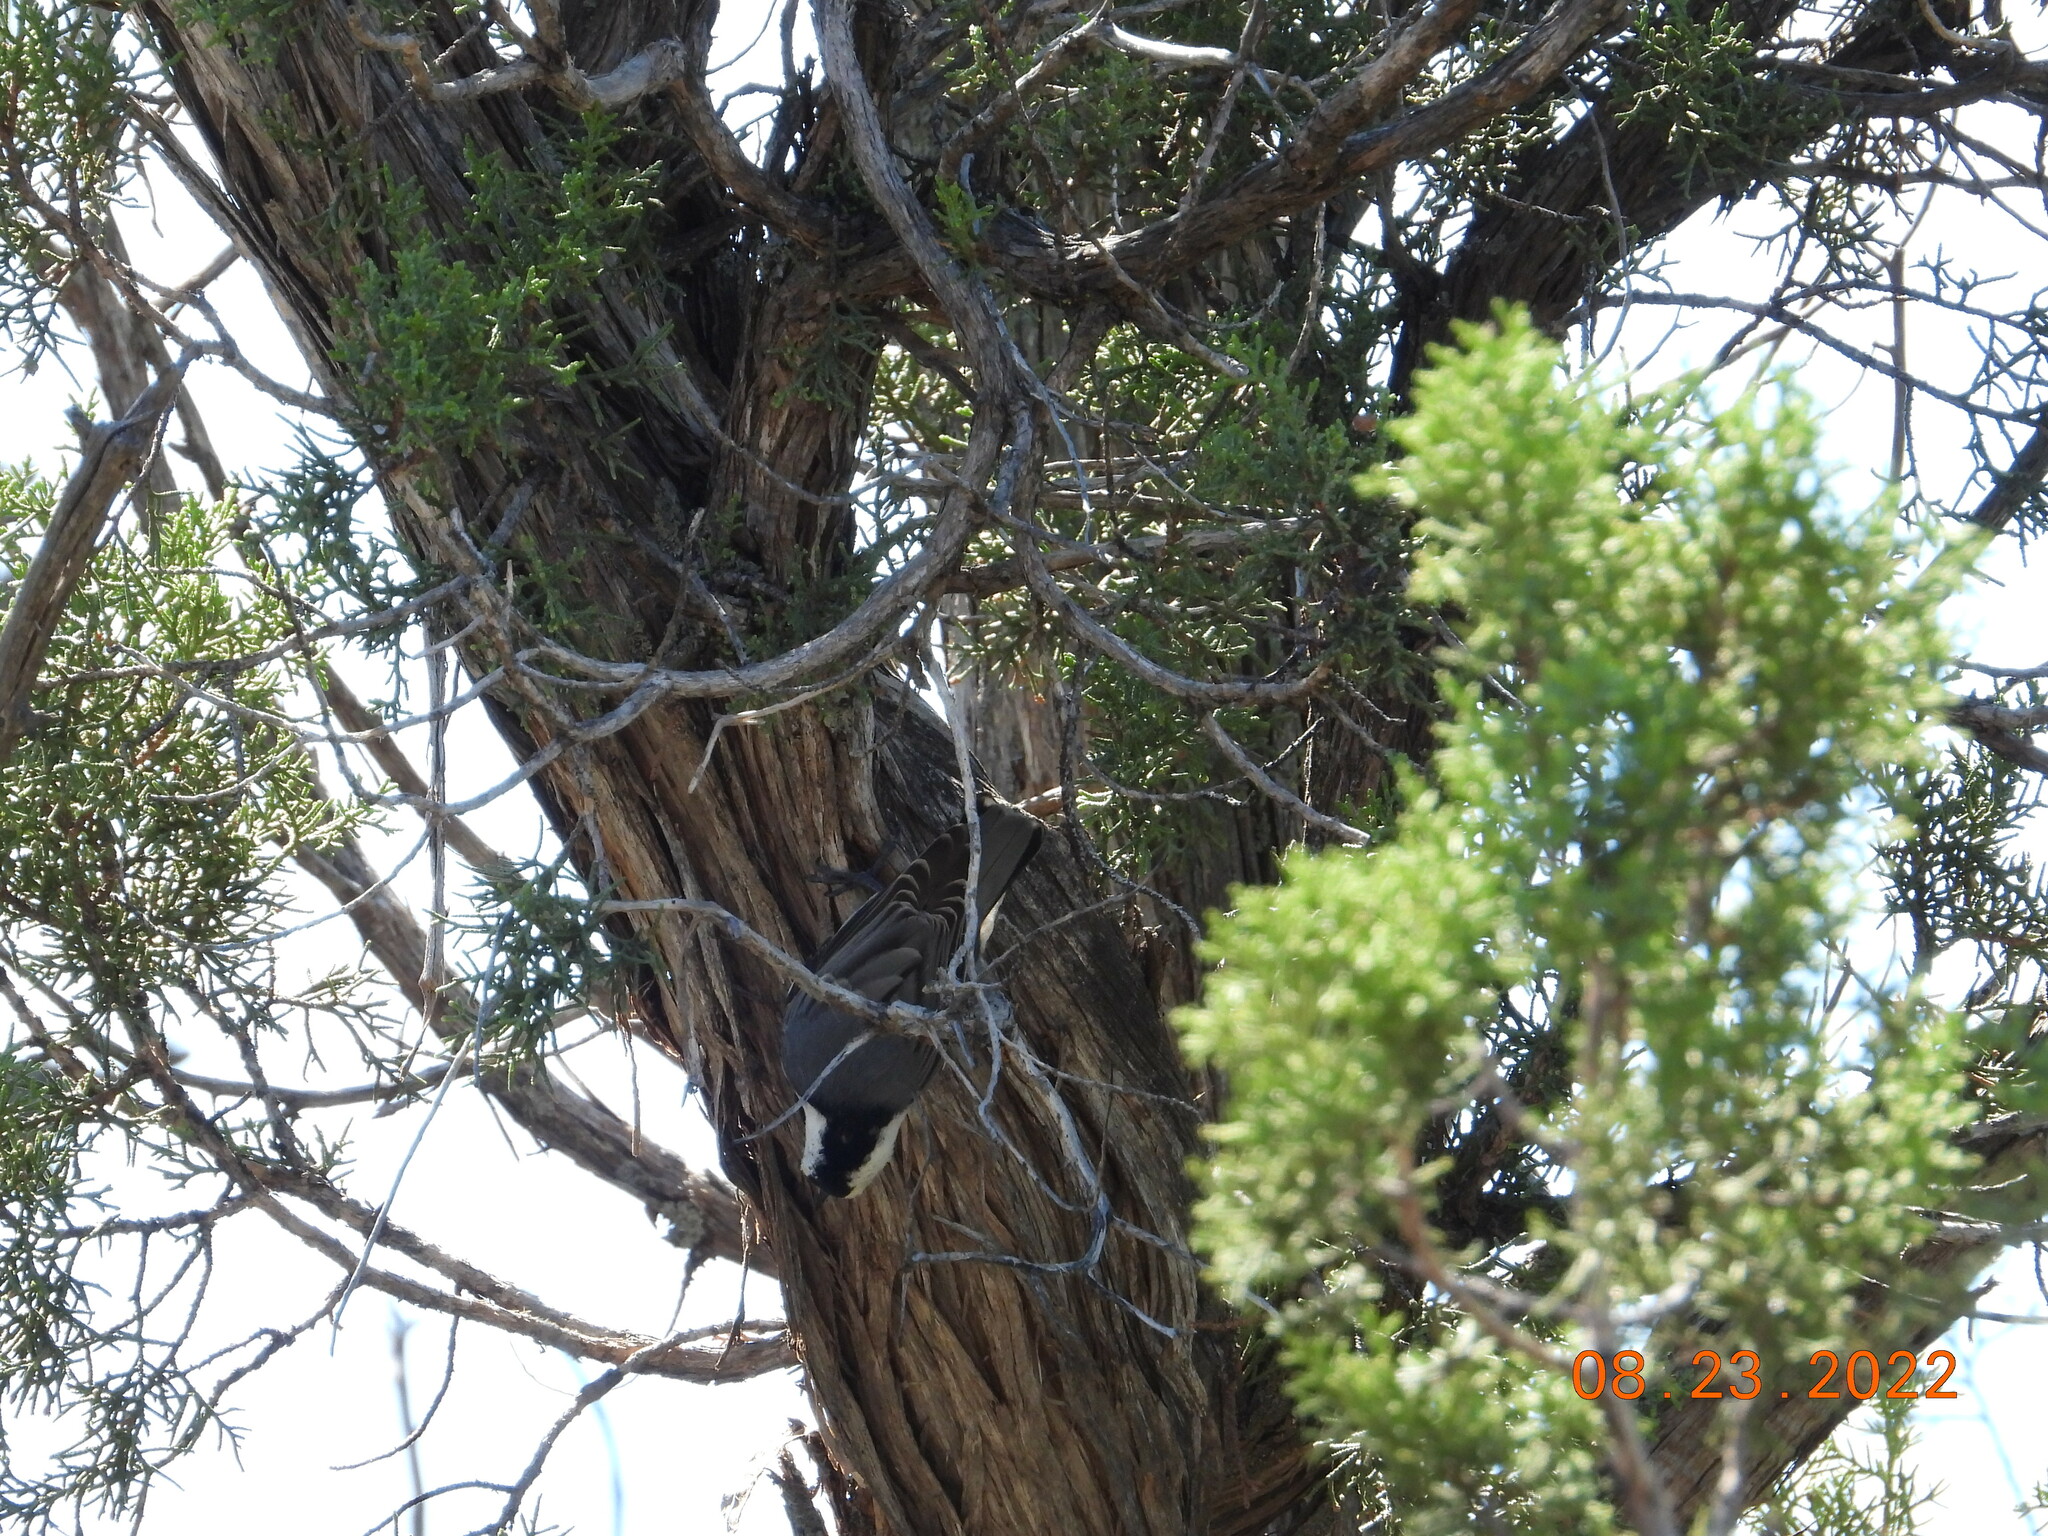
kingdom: Animalia
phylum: Chordata
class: Aves
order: Passeriformes
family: Sittidae
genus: Sitta
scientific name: Sitta carolinensis
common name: White-breasted nuthatch
